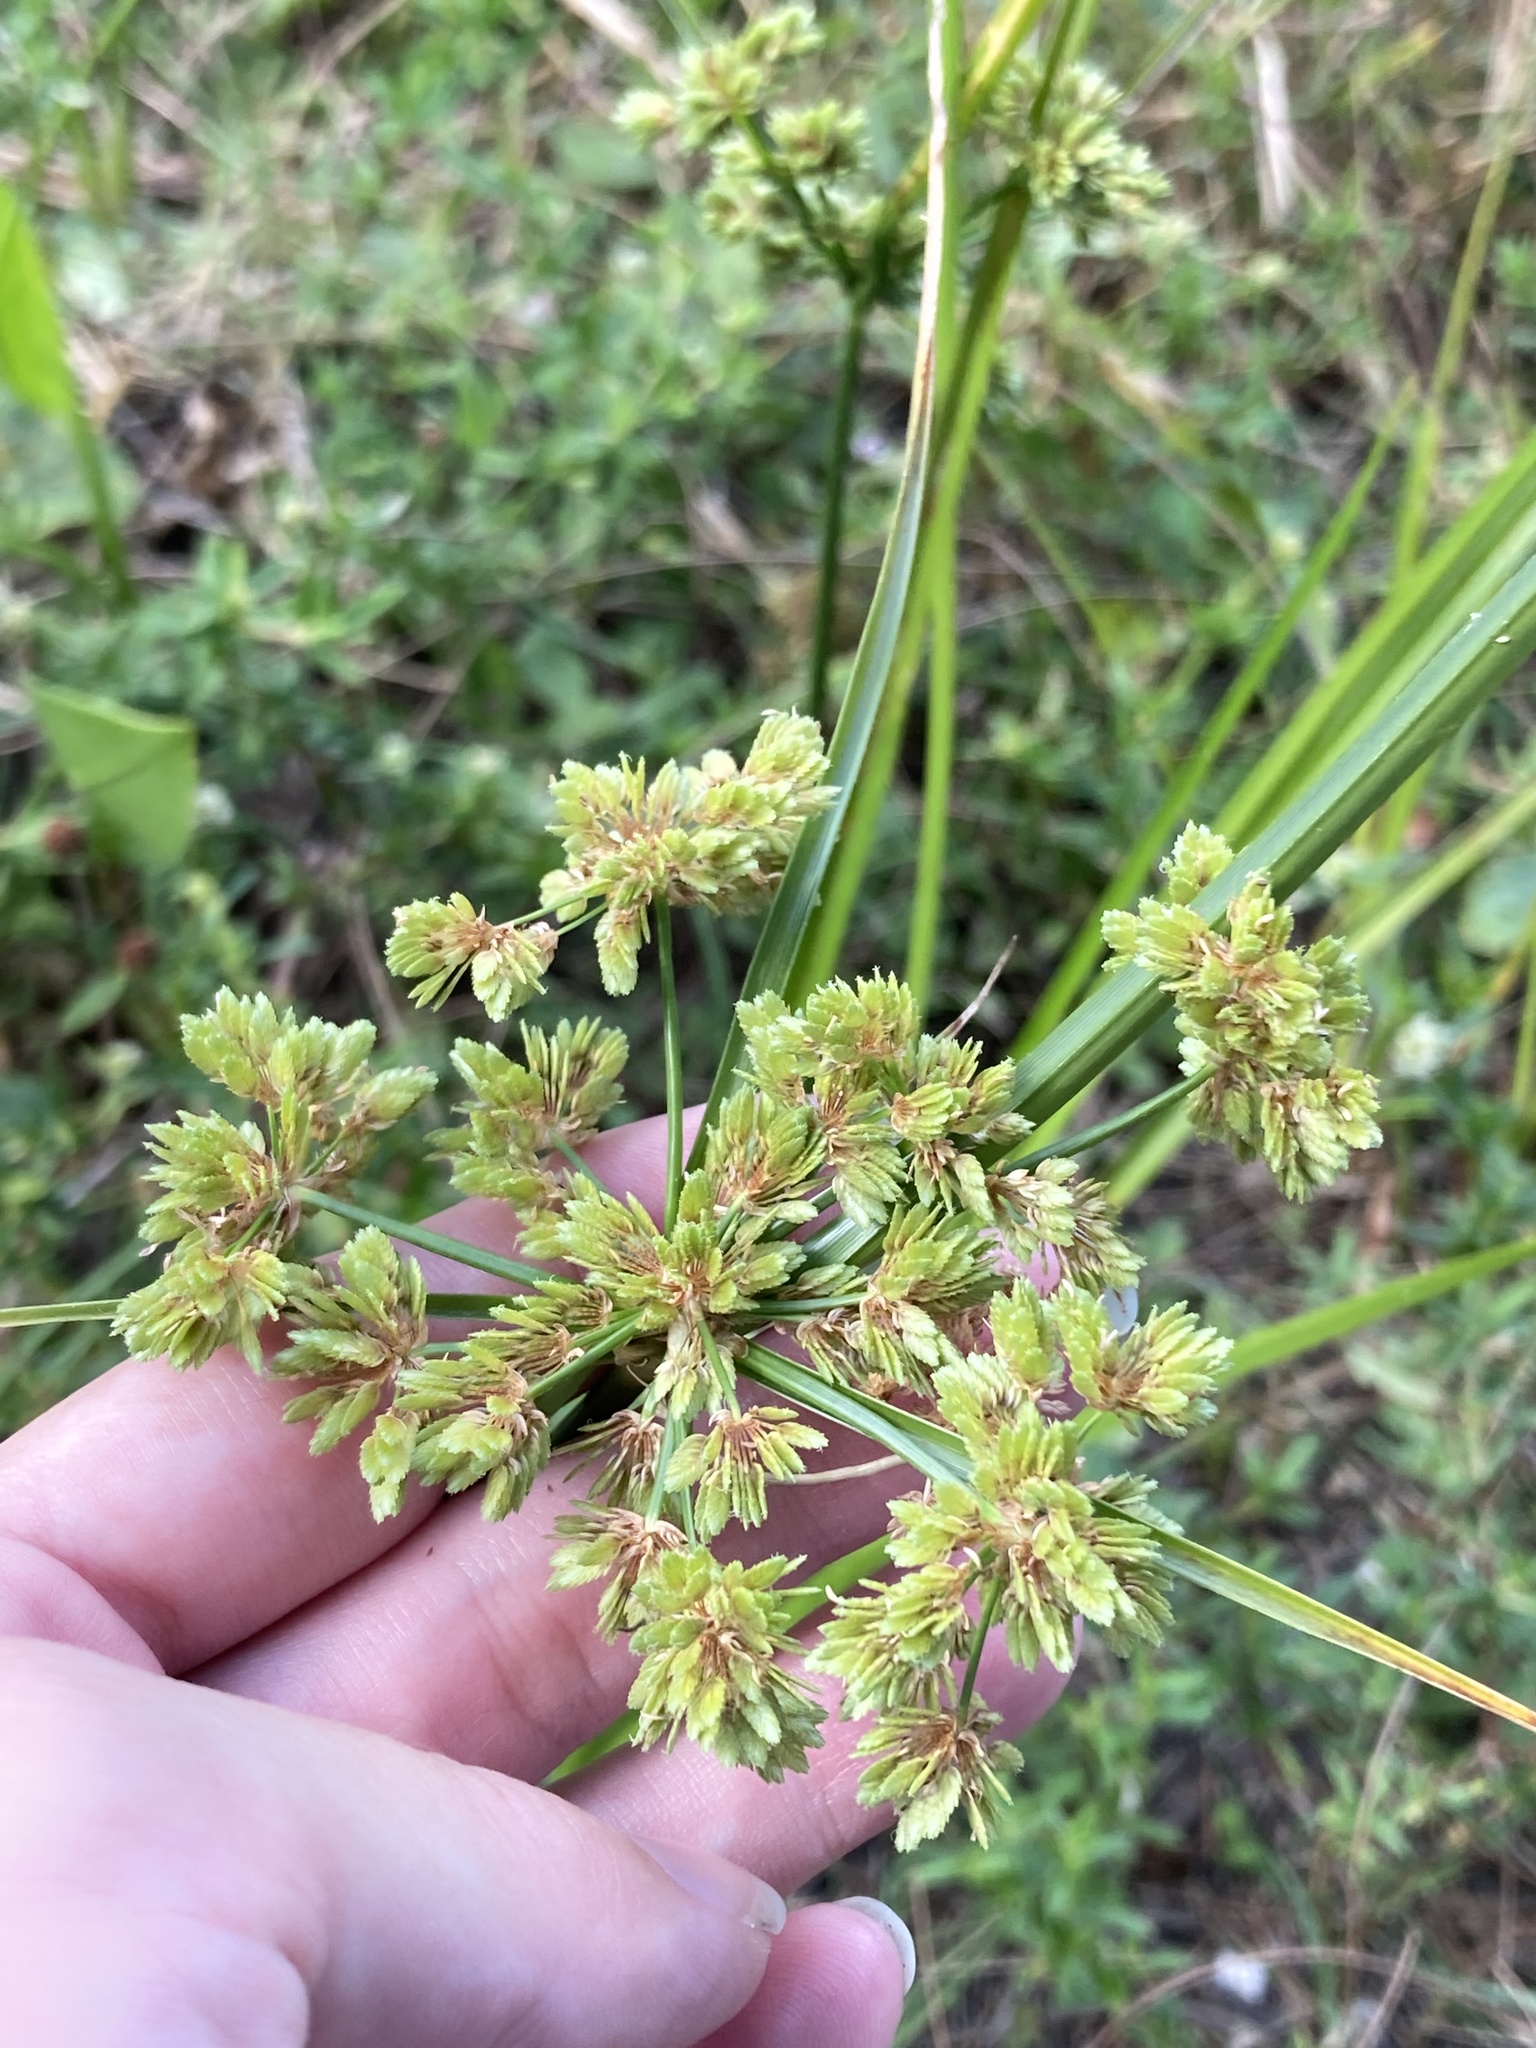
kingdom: Plantae
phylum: Tracheophyta
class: Liliopsida
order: Poales
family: Cyperaceae
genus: Cyperus
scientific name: Cyperus surinamensis
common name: Tropical flat sedge
